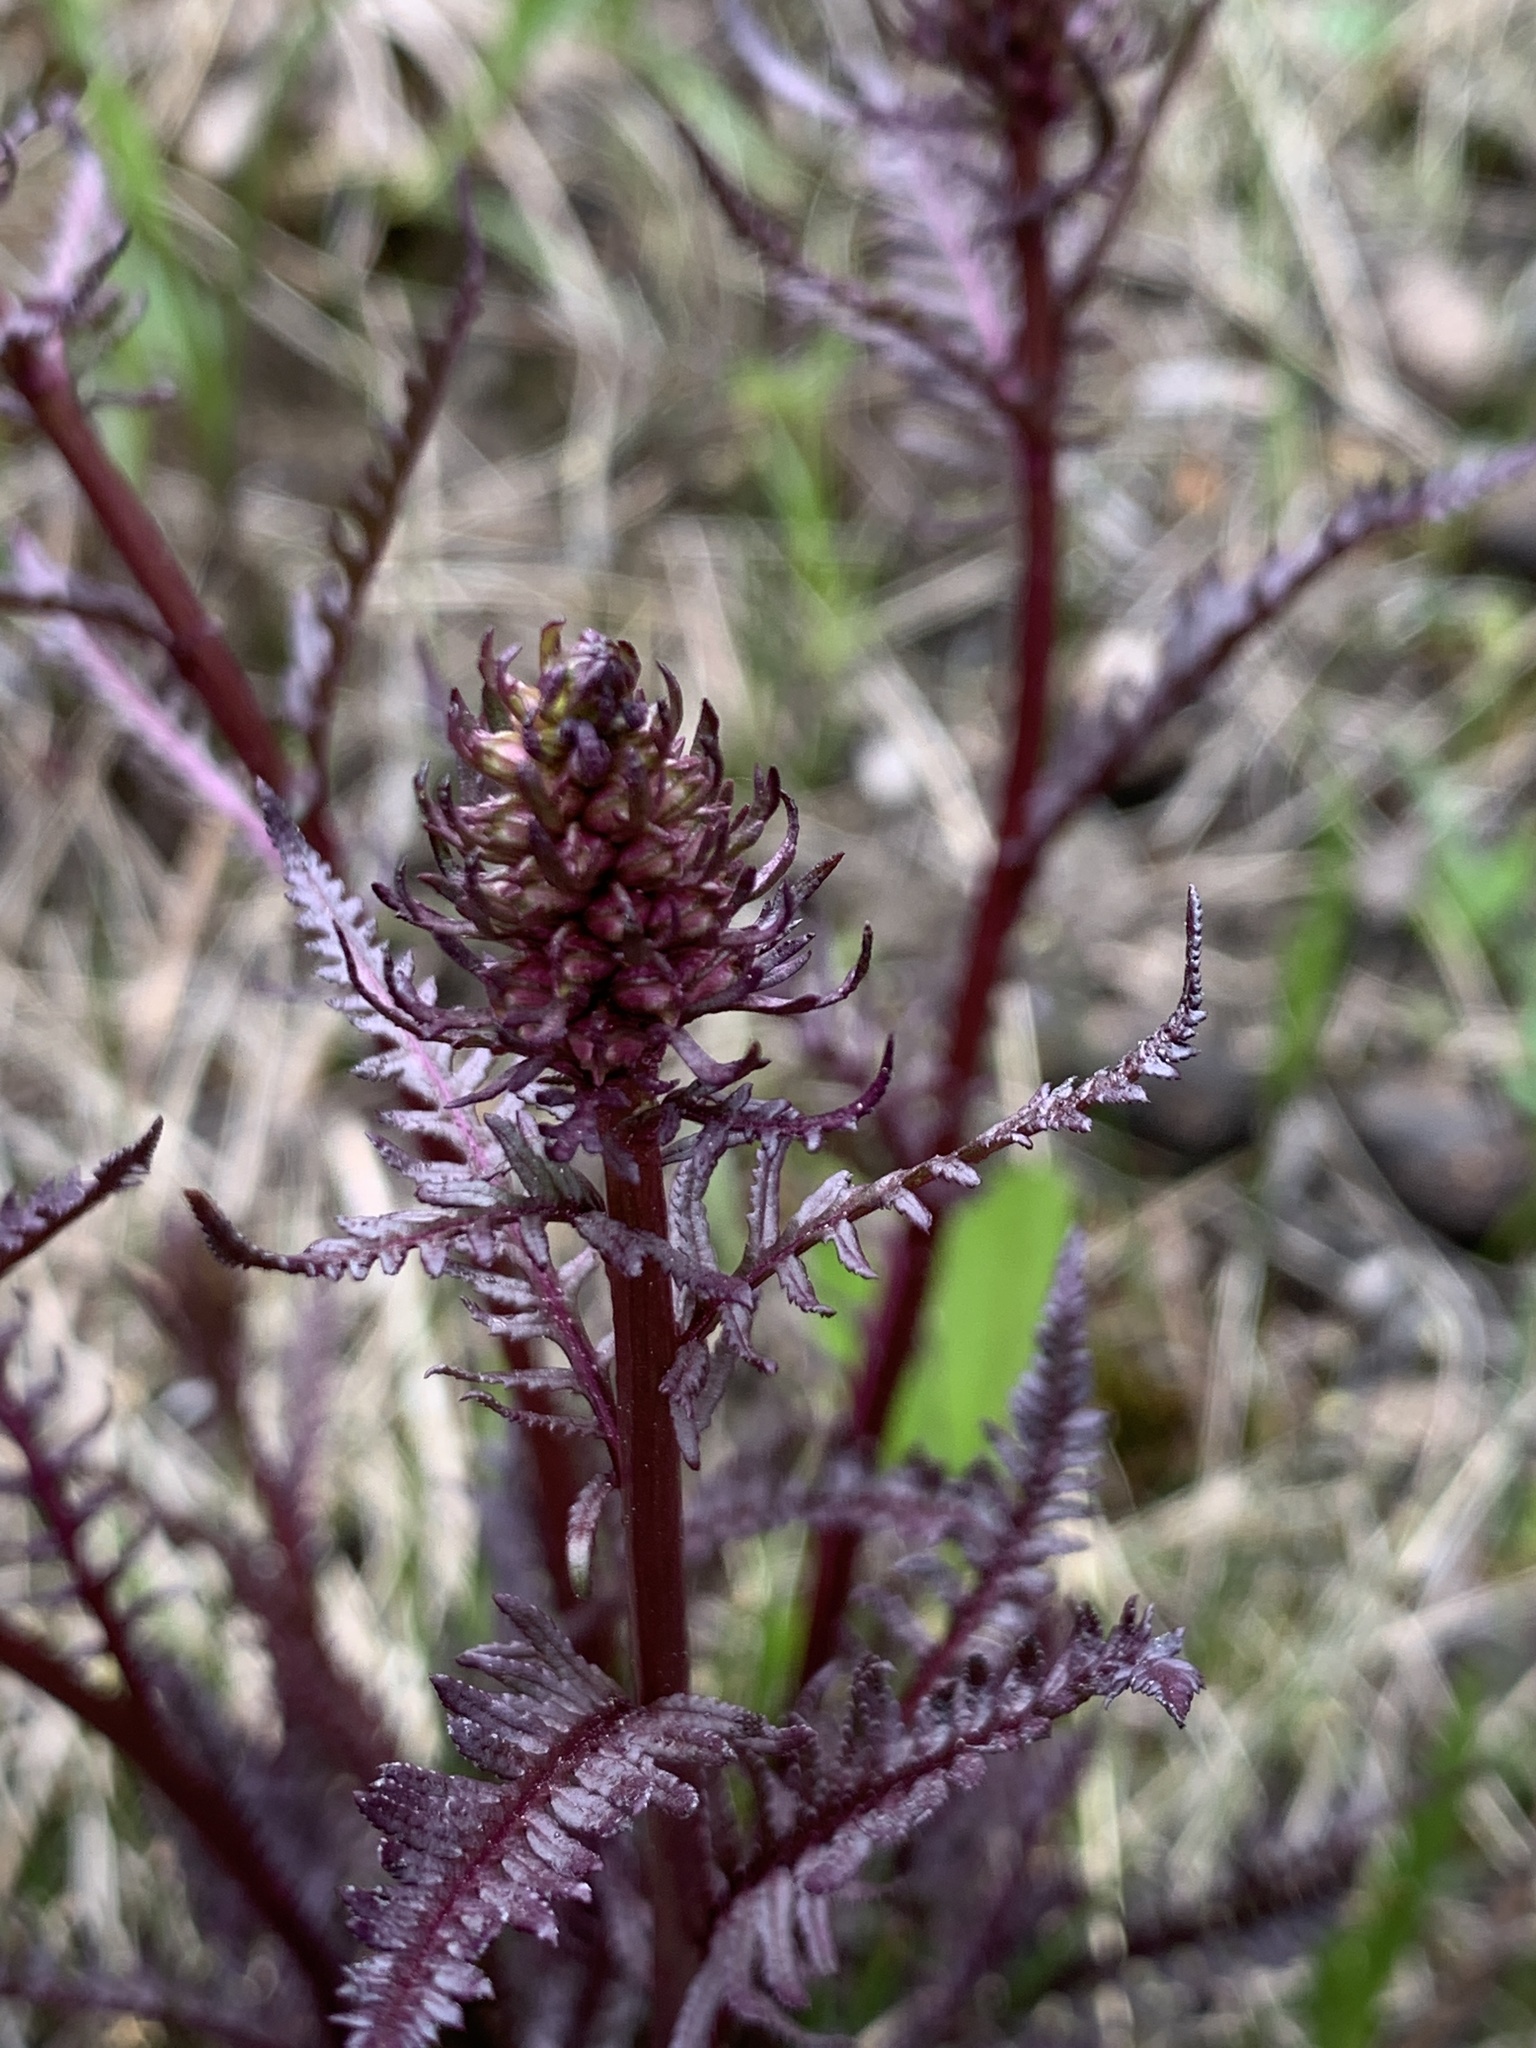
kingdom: Plantae
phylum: Tracheophyta
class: Magnoliopsida
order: Lamiales
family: Orobanchaceae
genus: Pedicularis
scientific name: Pedicularis groenlandica
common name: Elephant's-head
